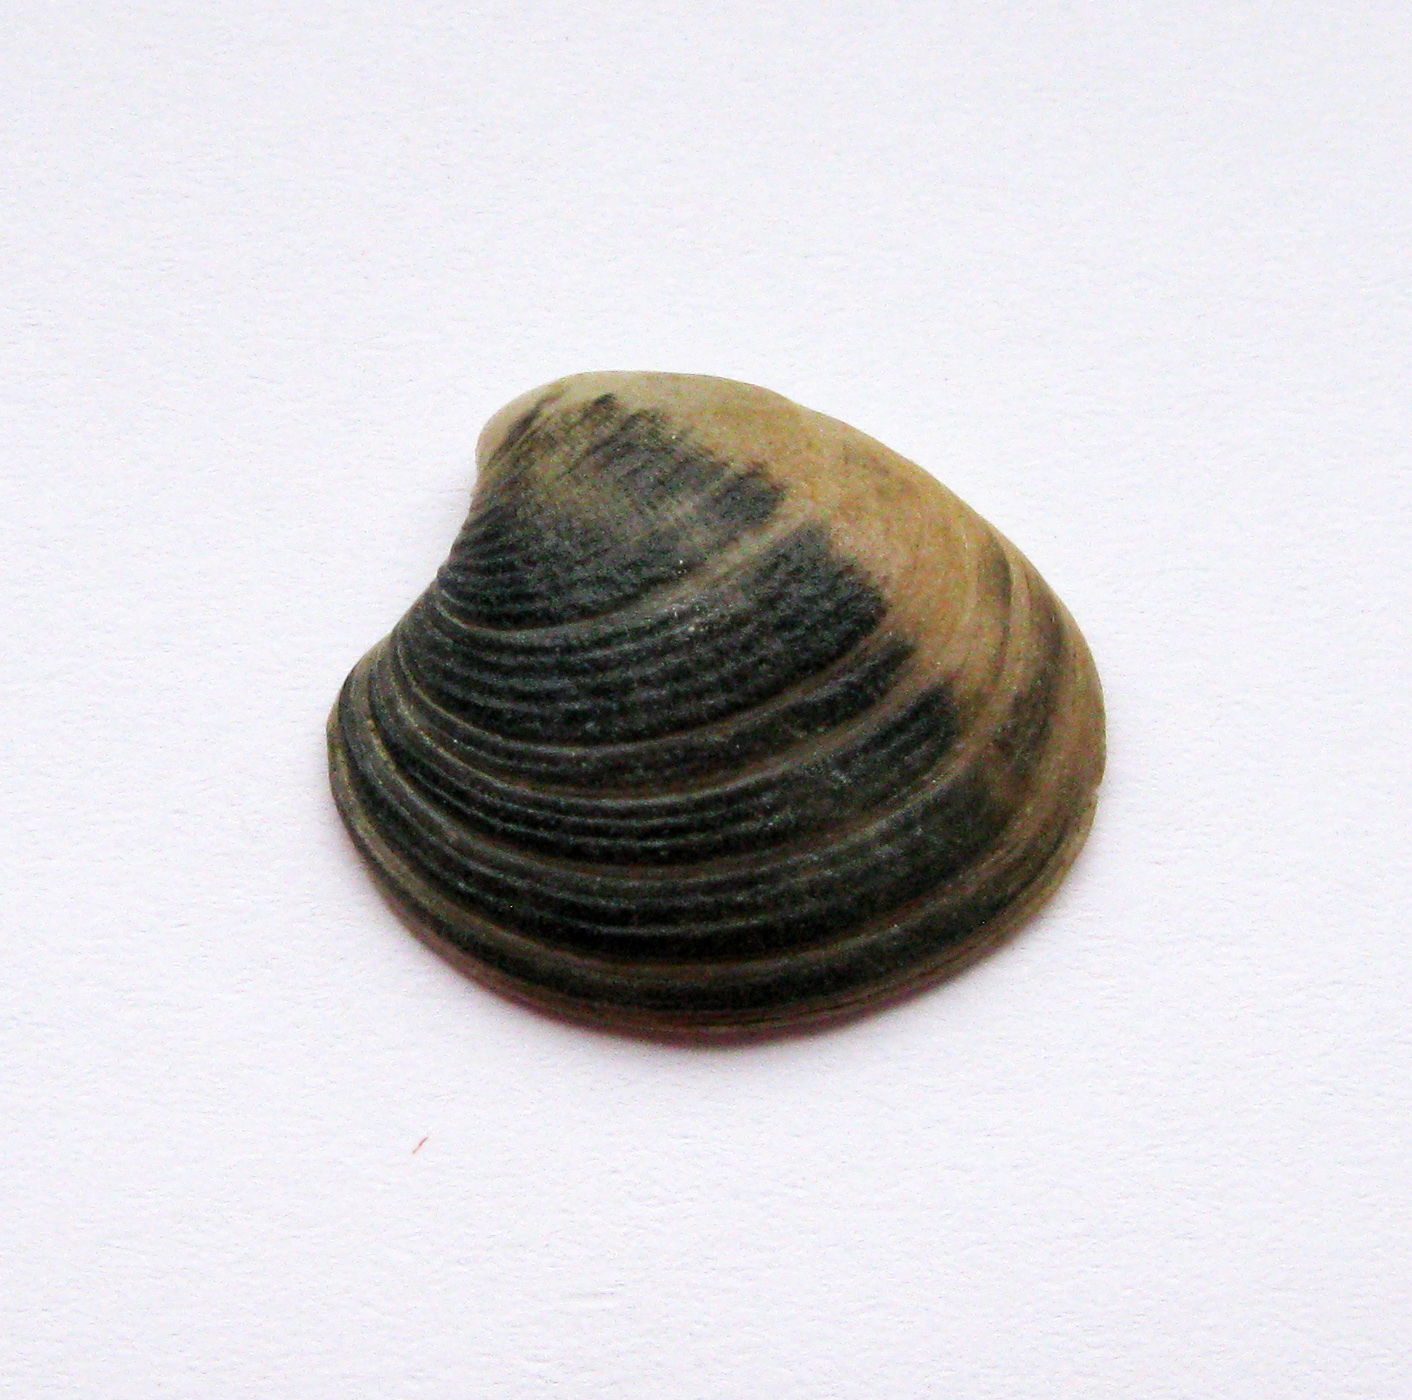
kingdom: Animalia
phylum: Mollusca
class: Bivalvia
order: Venerida
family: Veneridae
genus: Chamelea
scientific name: Chamelea gallina
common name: Chicken venus
